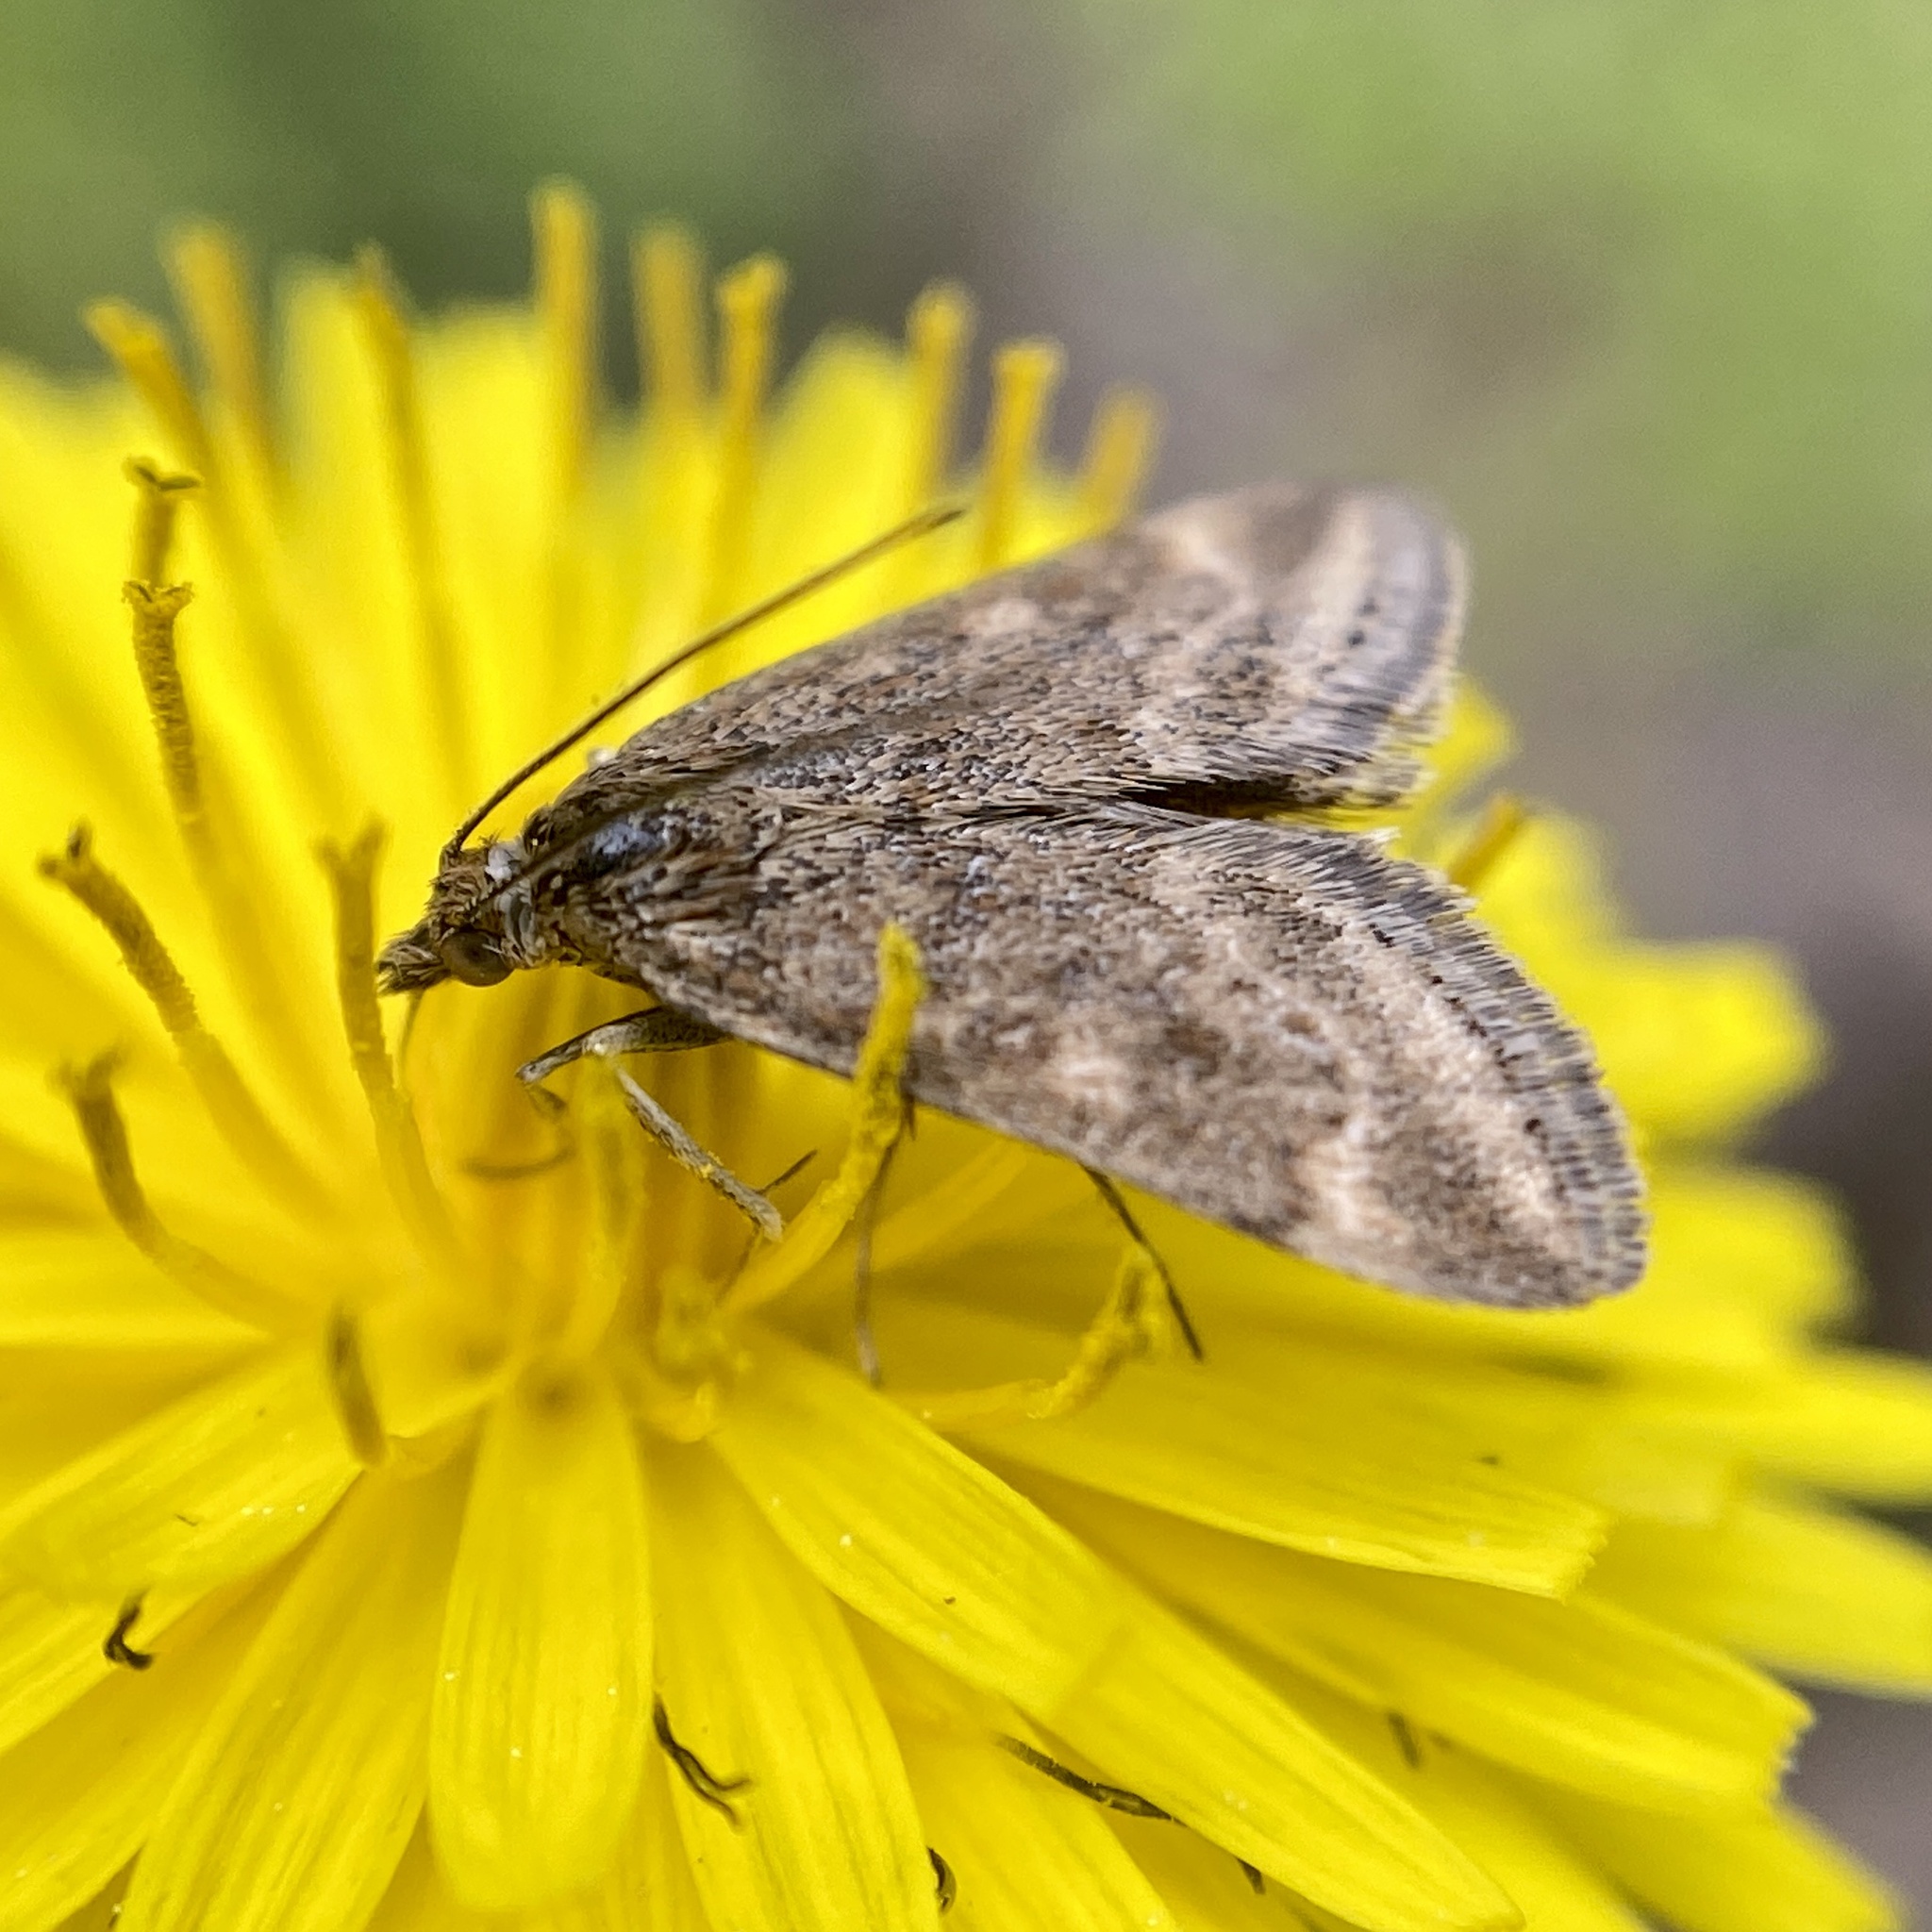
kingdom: Animalia
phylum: Arthropoda
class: Insecta
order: Lepidoptera
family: Crambidae
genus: Pyrausta
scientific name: Pyrausta despicata
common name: Straw-barred pearl
